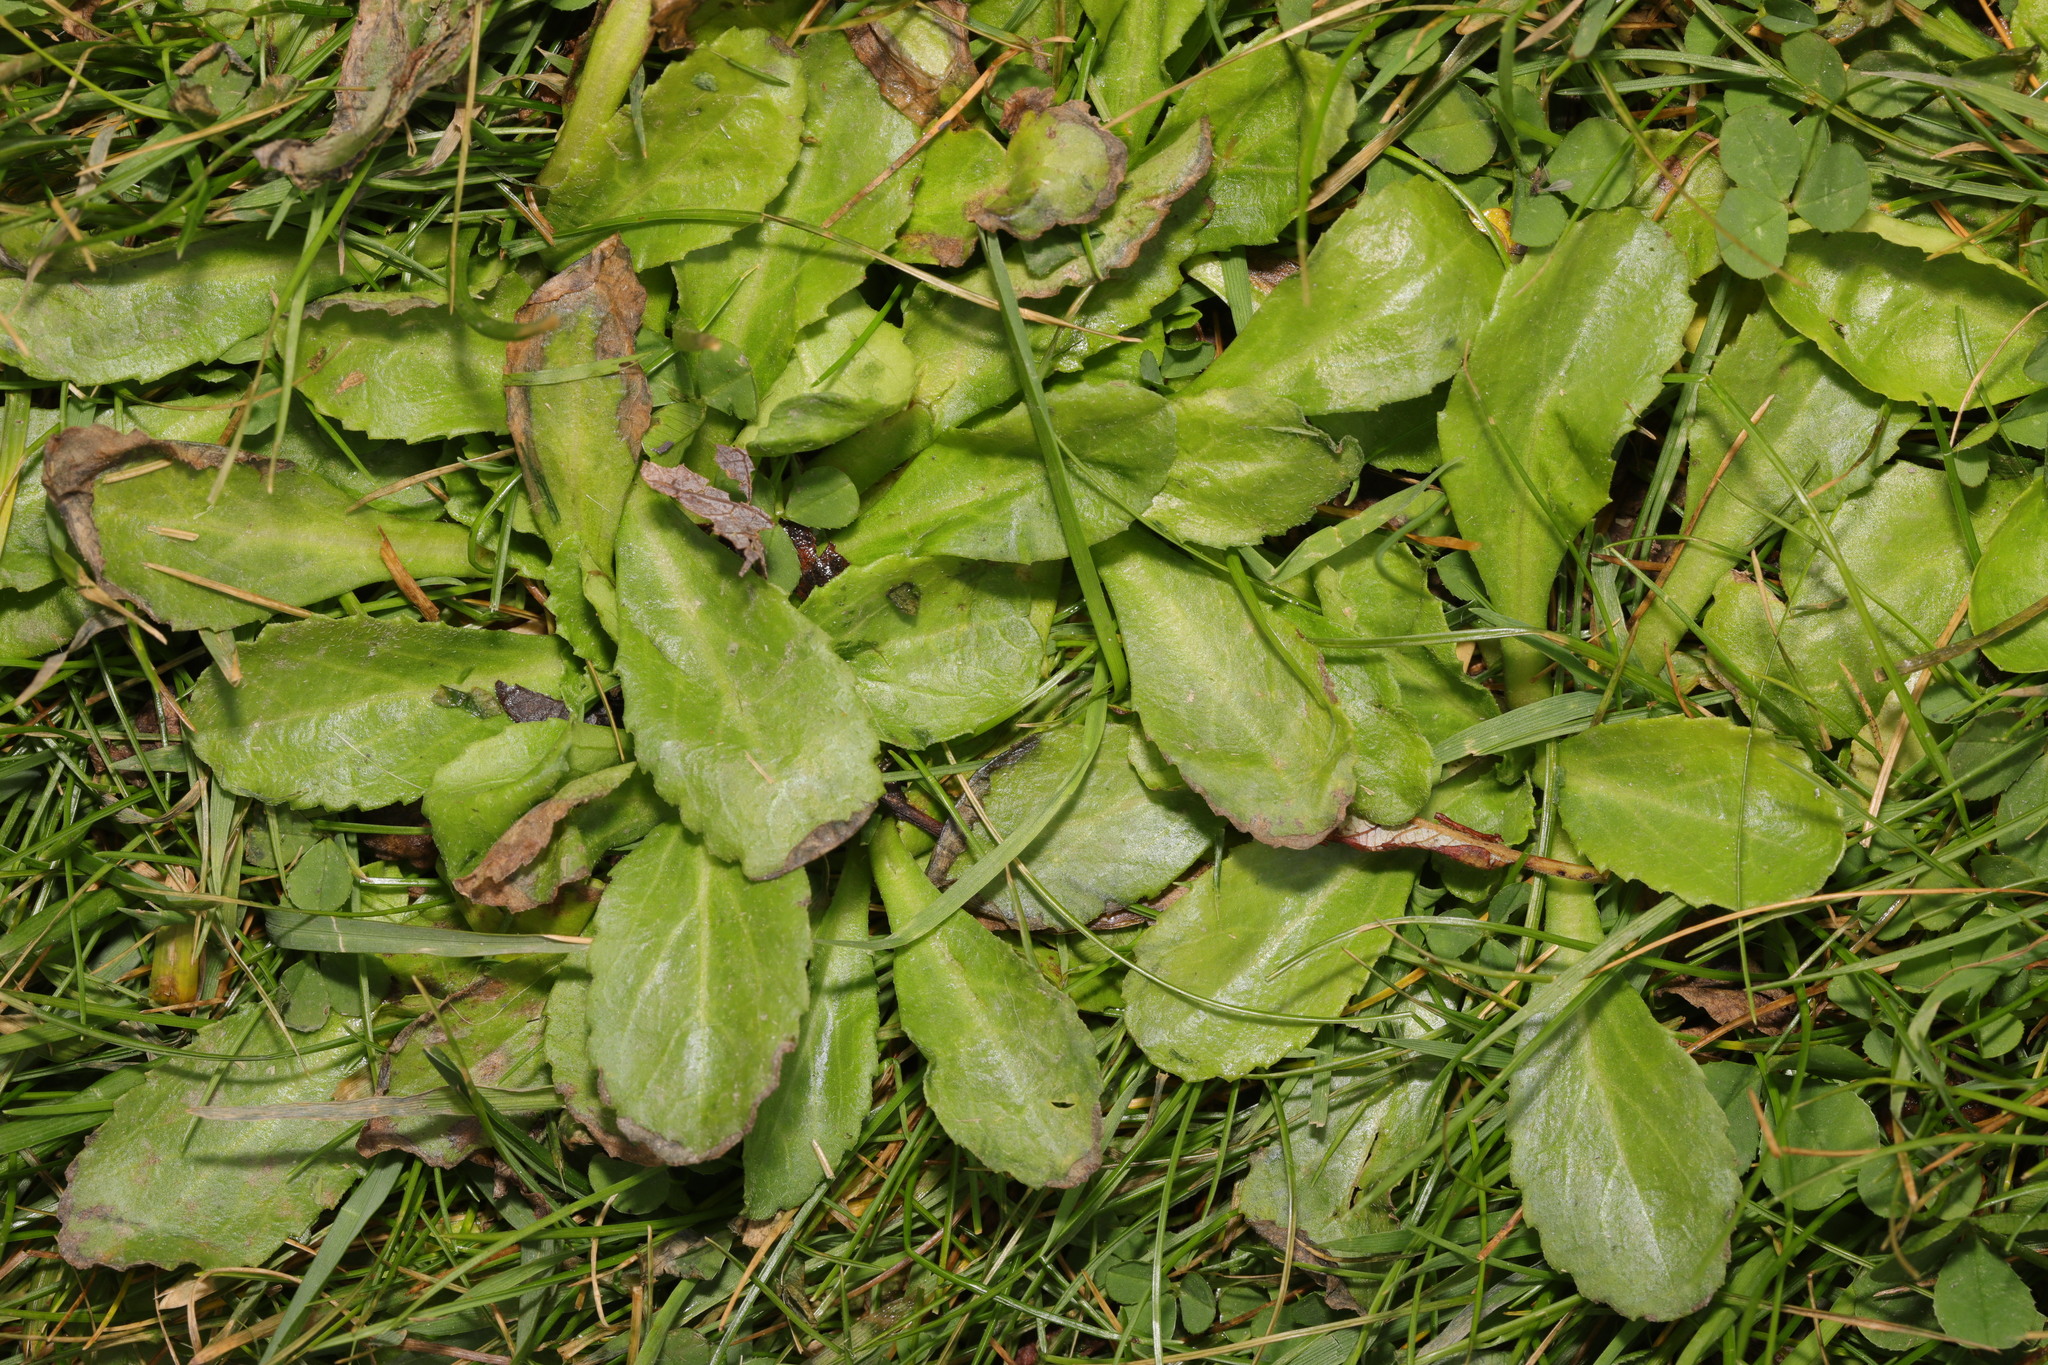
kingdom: Plantae
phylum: Tracheophyta
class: Magnoliopsida
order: Asterales
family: Asteraceae
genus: Bellis
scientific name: Bellis perennis
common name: Lawndaisy
